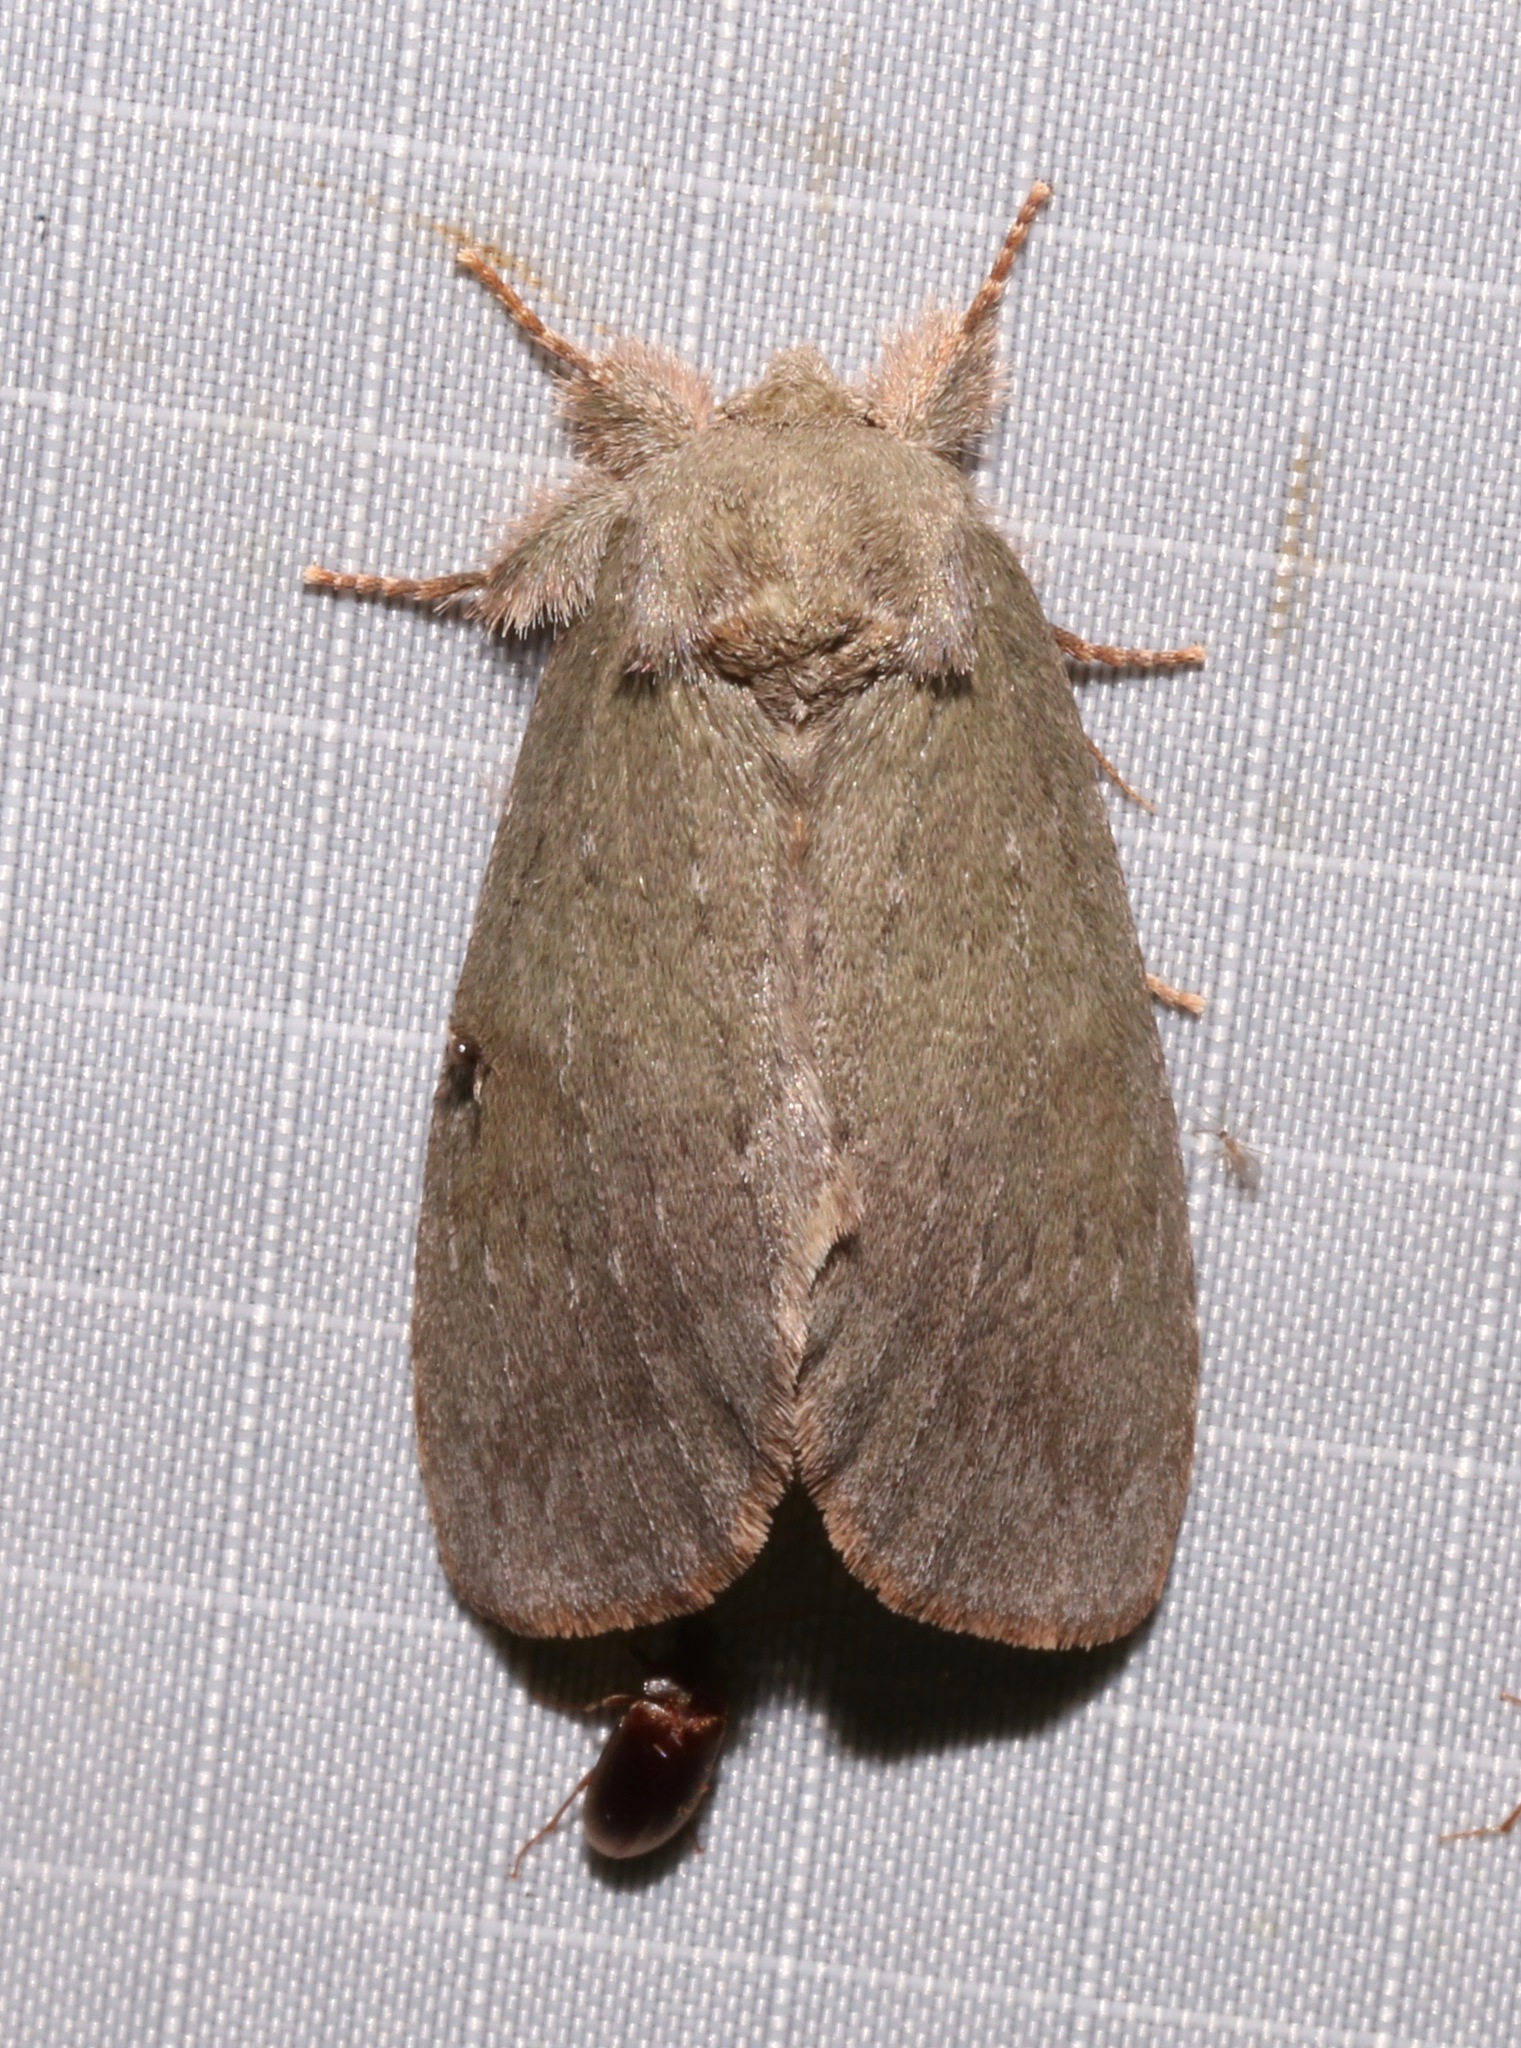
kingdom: Animalia
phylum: Arthropoda
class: Insecta
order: Lepidoptera
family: Notodontidae
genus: Misogada
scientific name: Misogada unicolor
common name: Drab prominent
